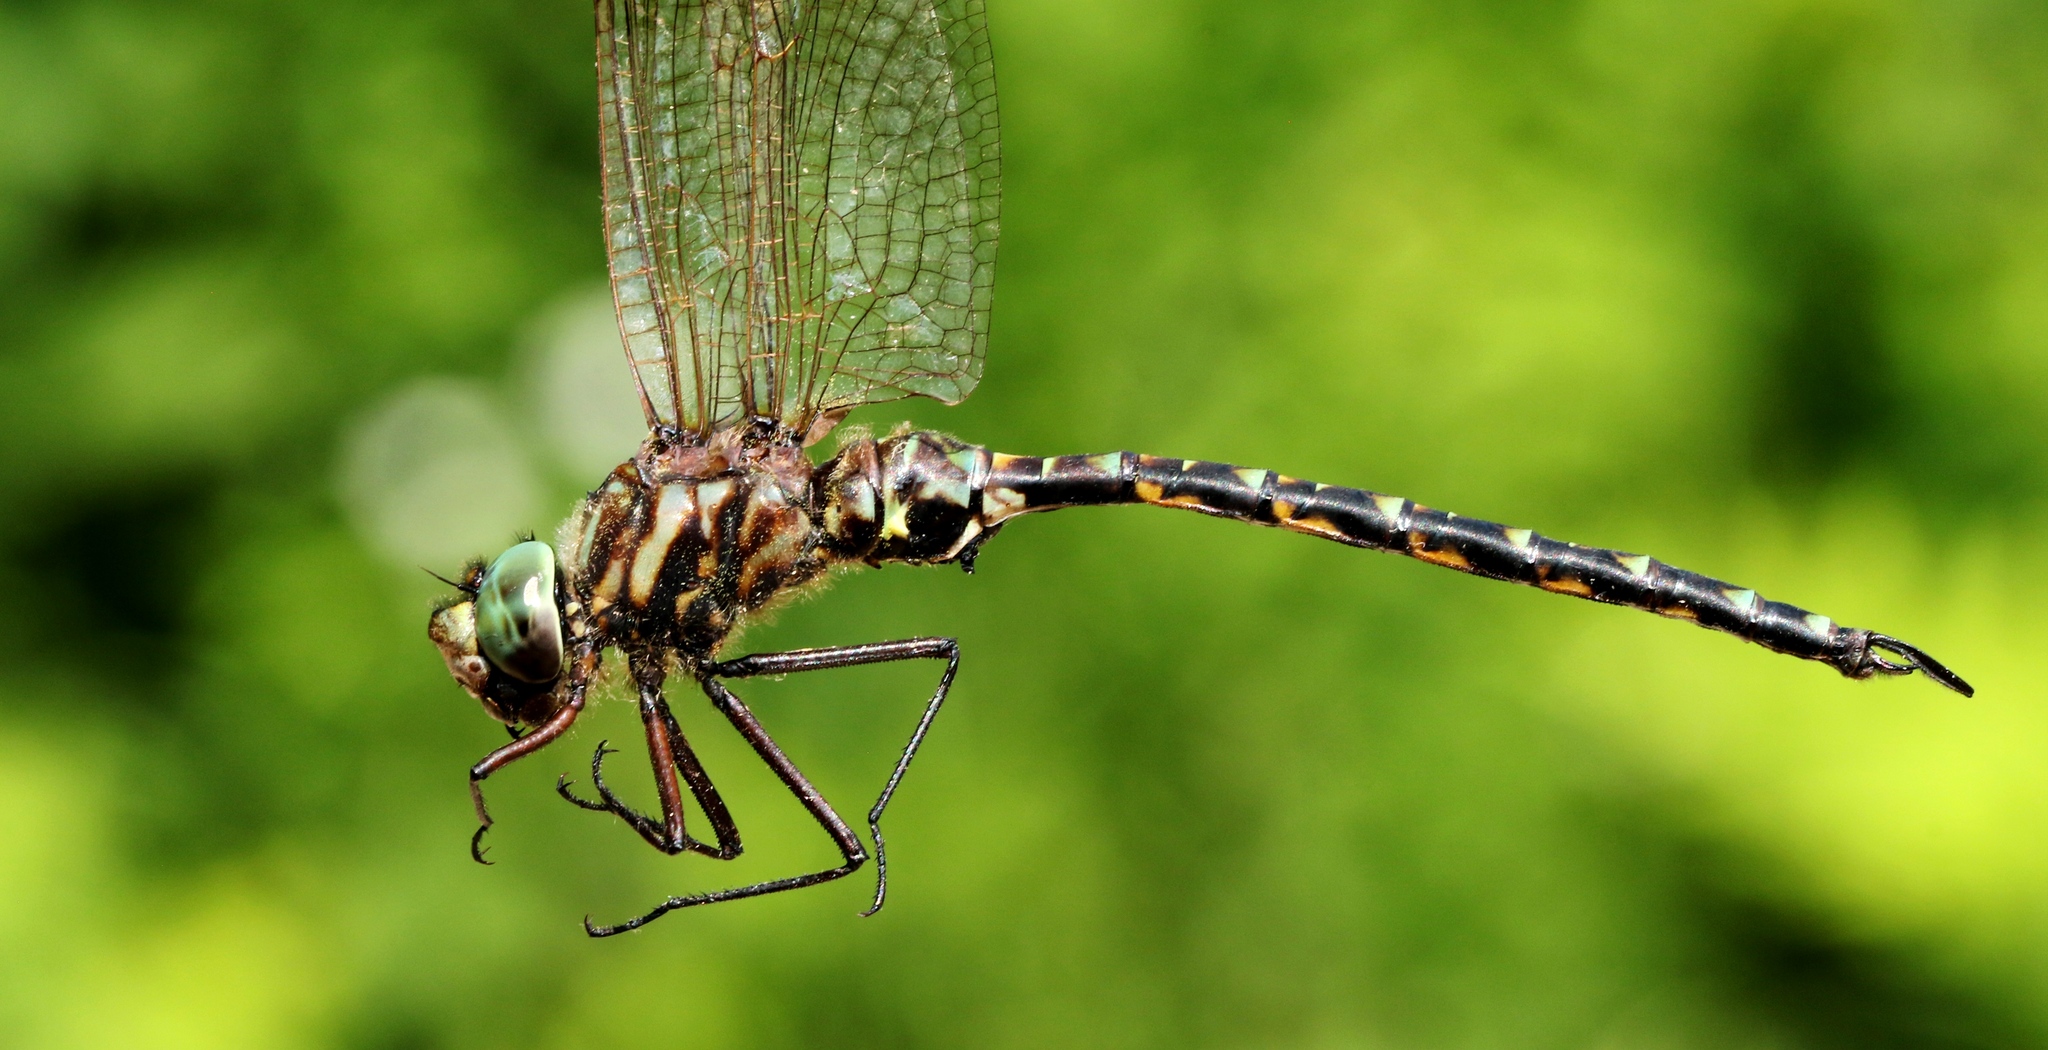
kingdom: Animalia
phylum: Arthropoda
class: Insecta
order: Odonata
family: Aeshnidae
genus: Gomphaeschna
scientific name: Gomphaeschna furcillata
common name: Harlequin darner
